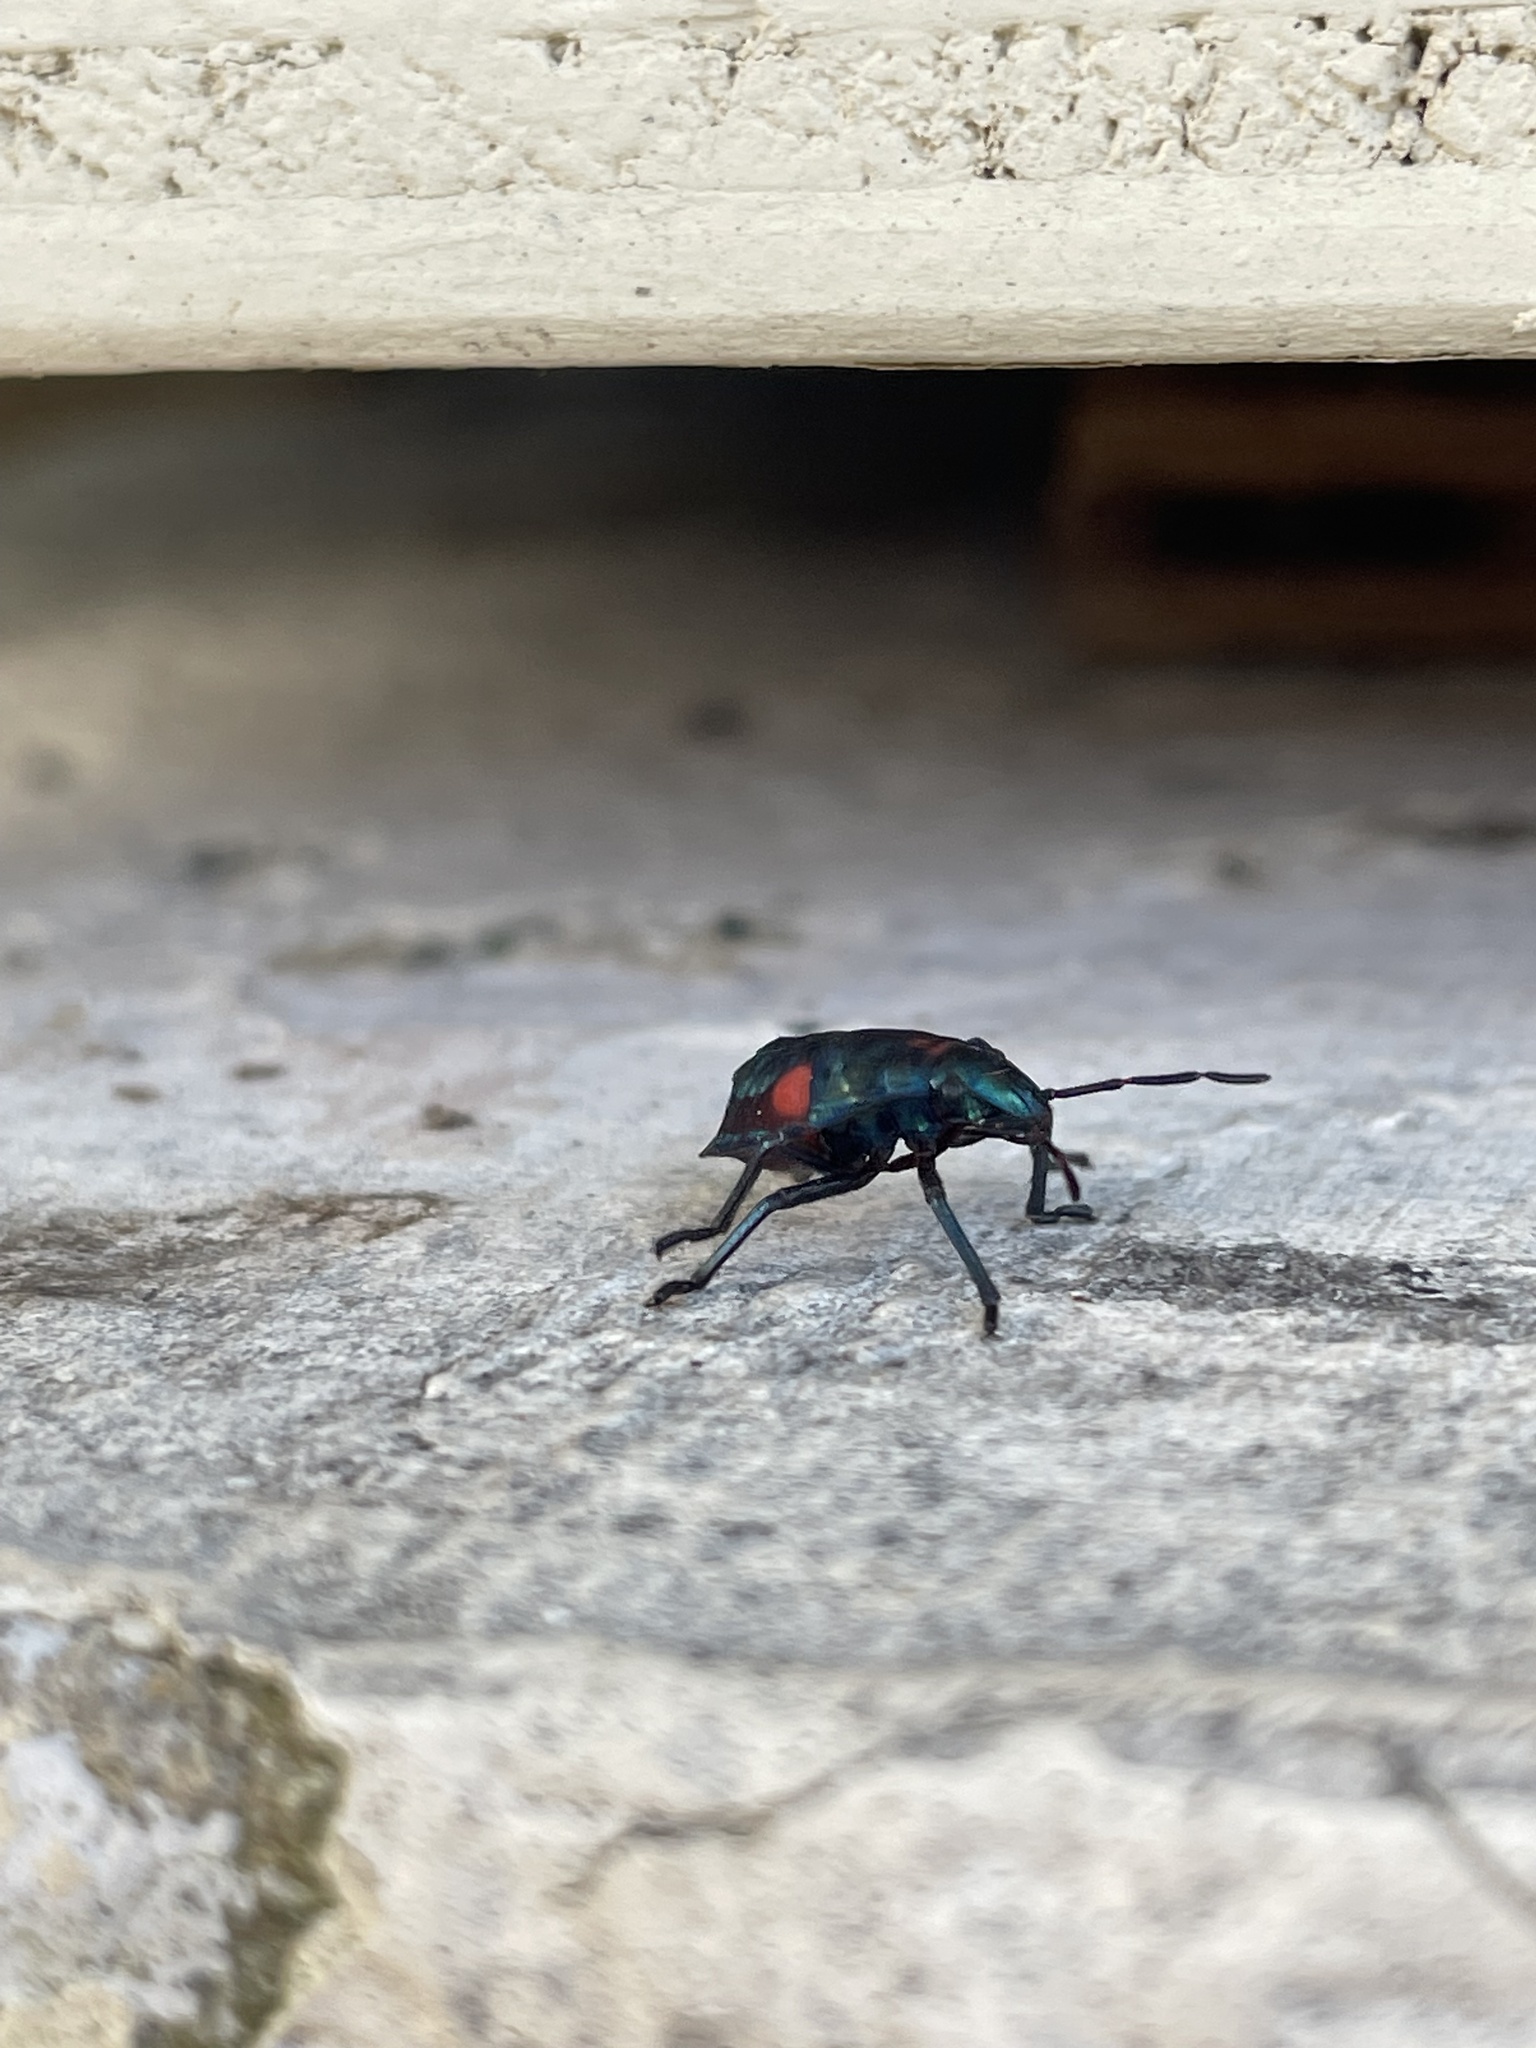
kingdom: Animalia
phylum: Arthropoda
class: Insecta
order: Hemiptera
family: Scutelleridae
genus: Tectocoris
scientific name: Tectocoris diophthalmus
